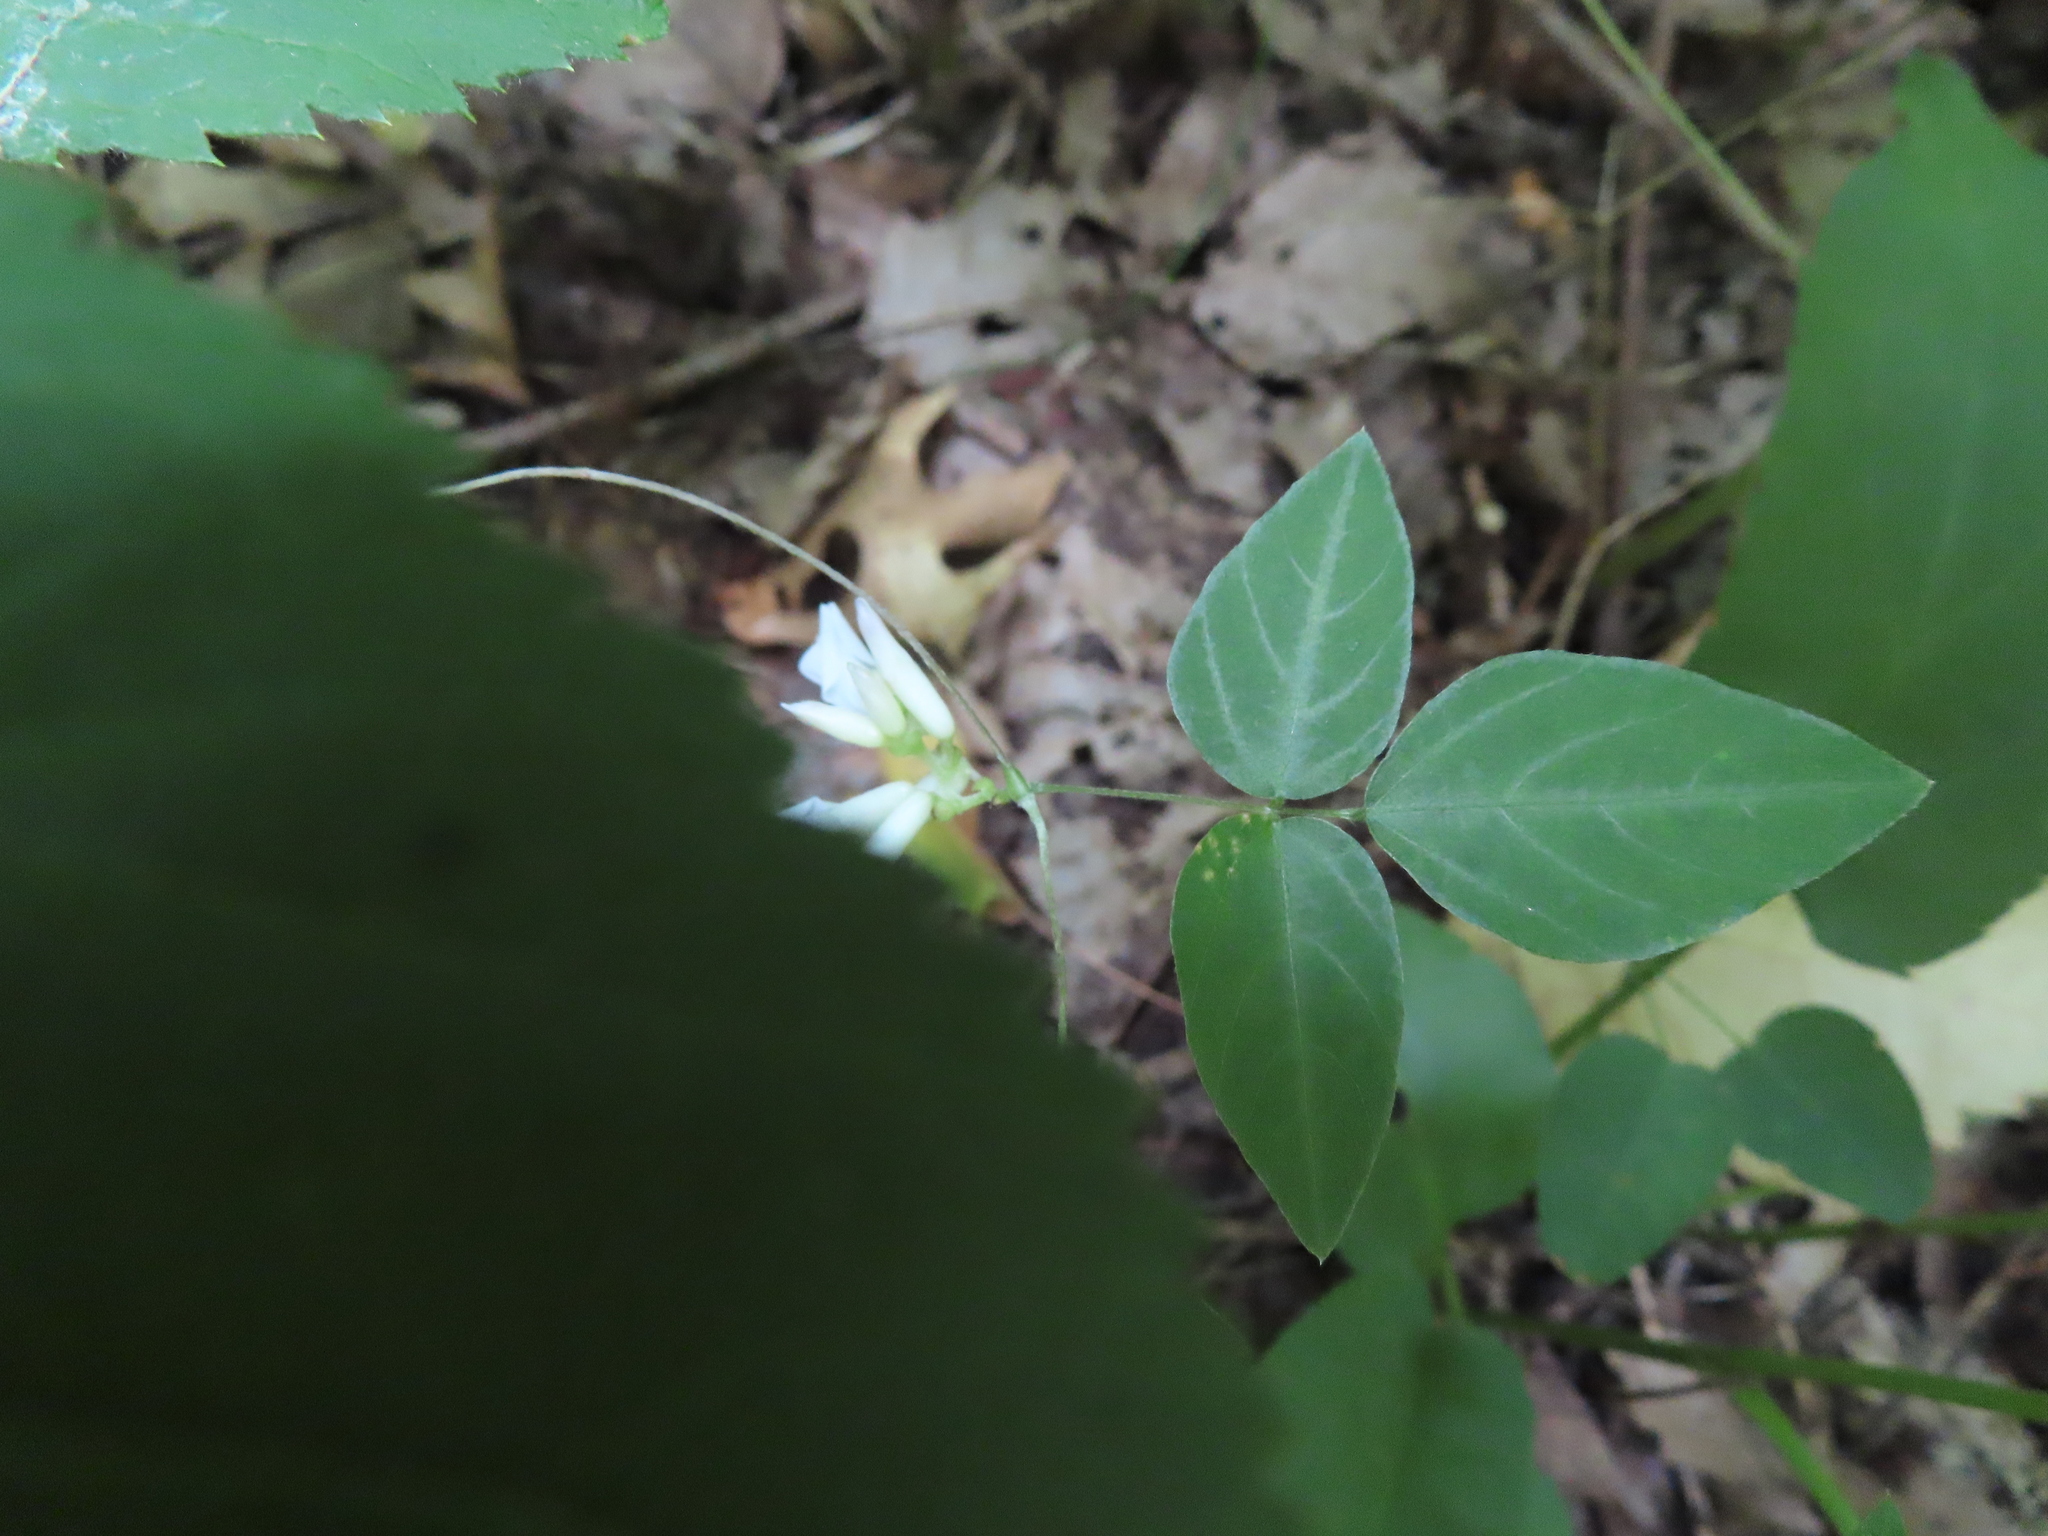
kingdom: Plantae
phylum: Tracheophyta
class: Magnoliopsida
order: Fabales
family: Fabaceae
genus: Amphicarpaea
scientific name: Amphicarpaea bracteata
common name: American hog peanut
